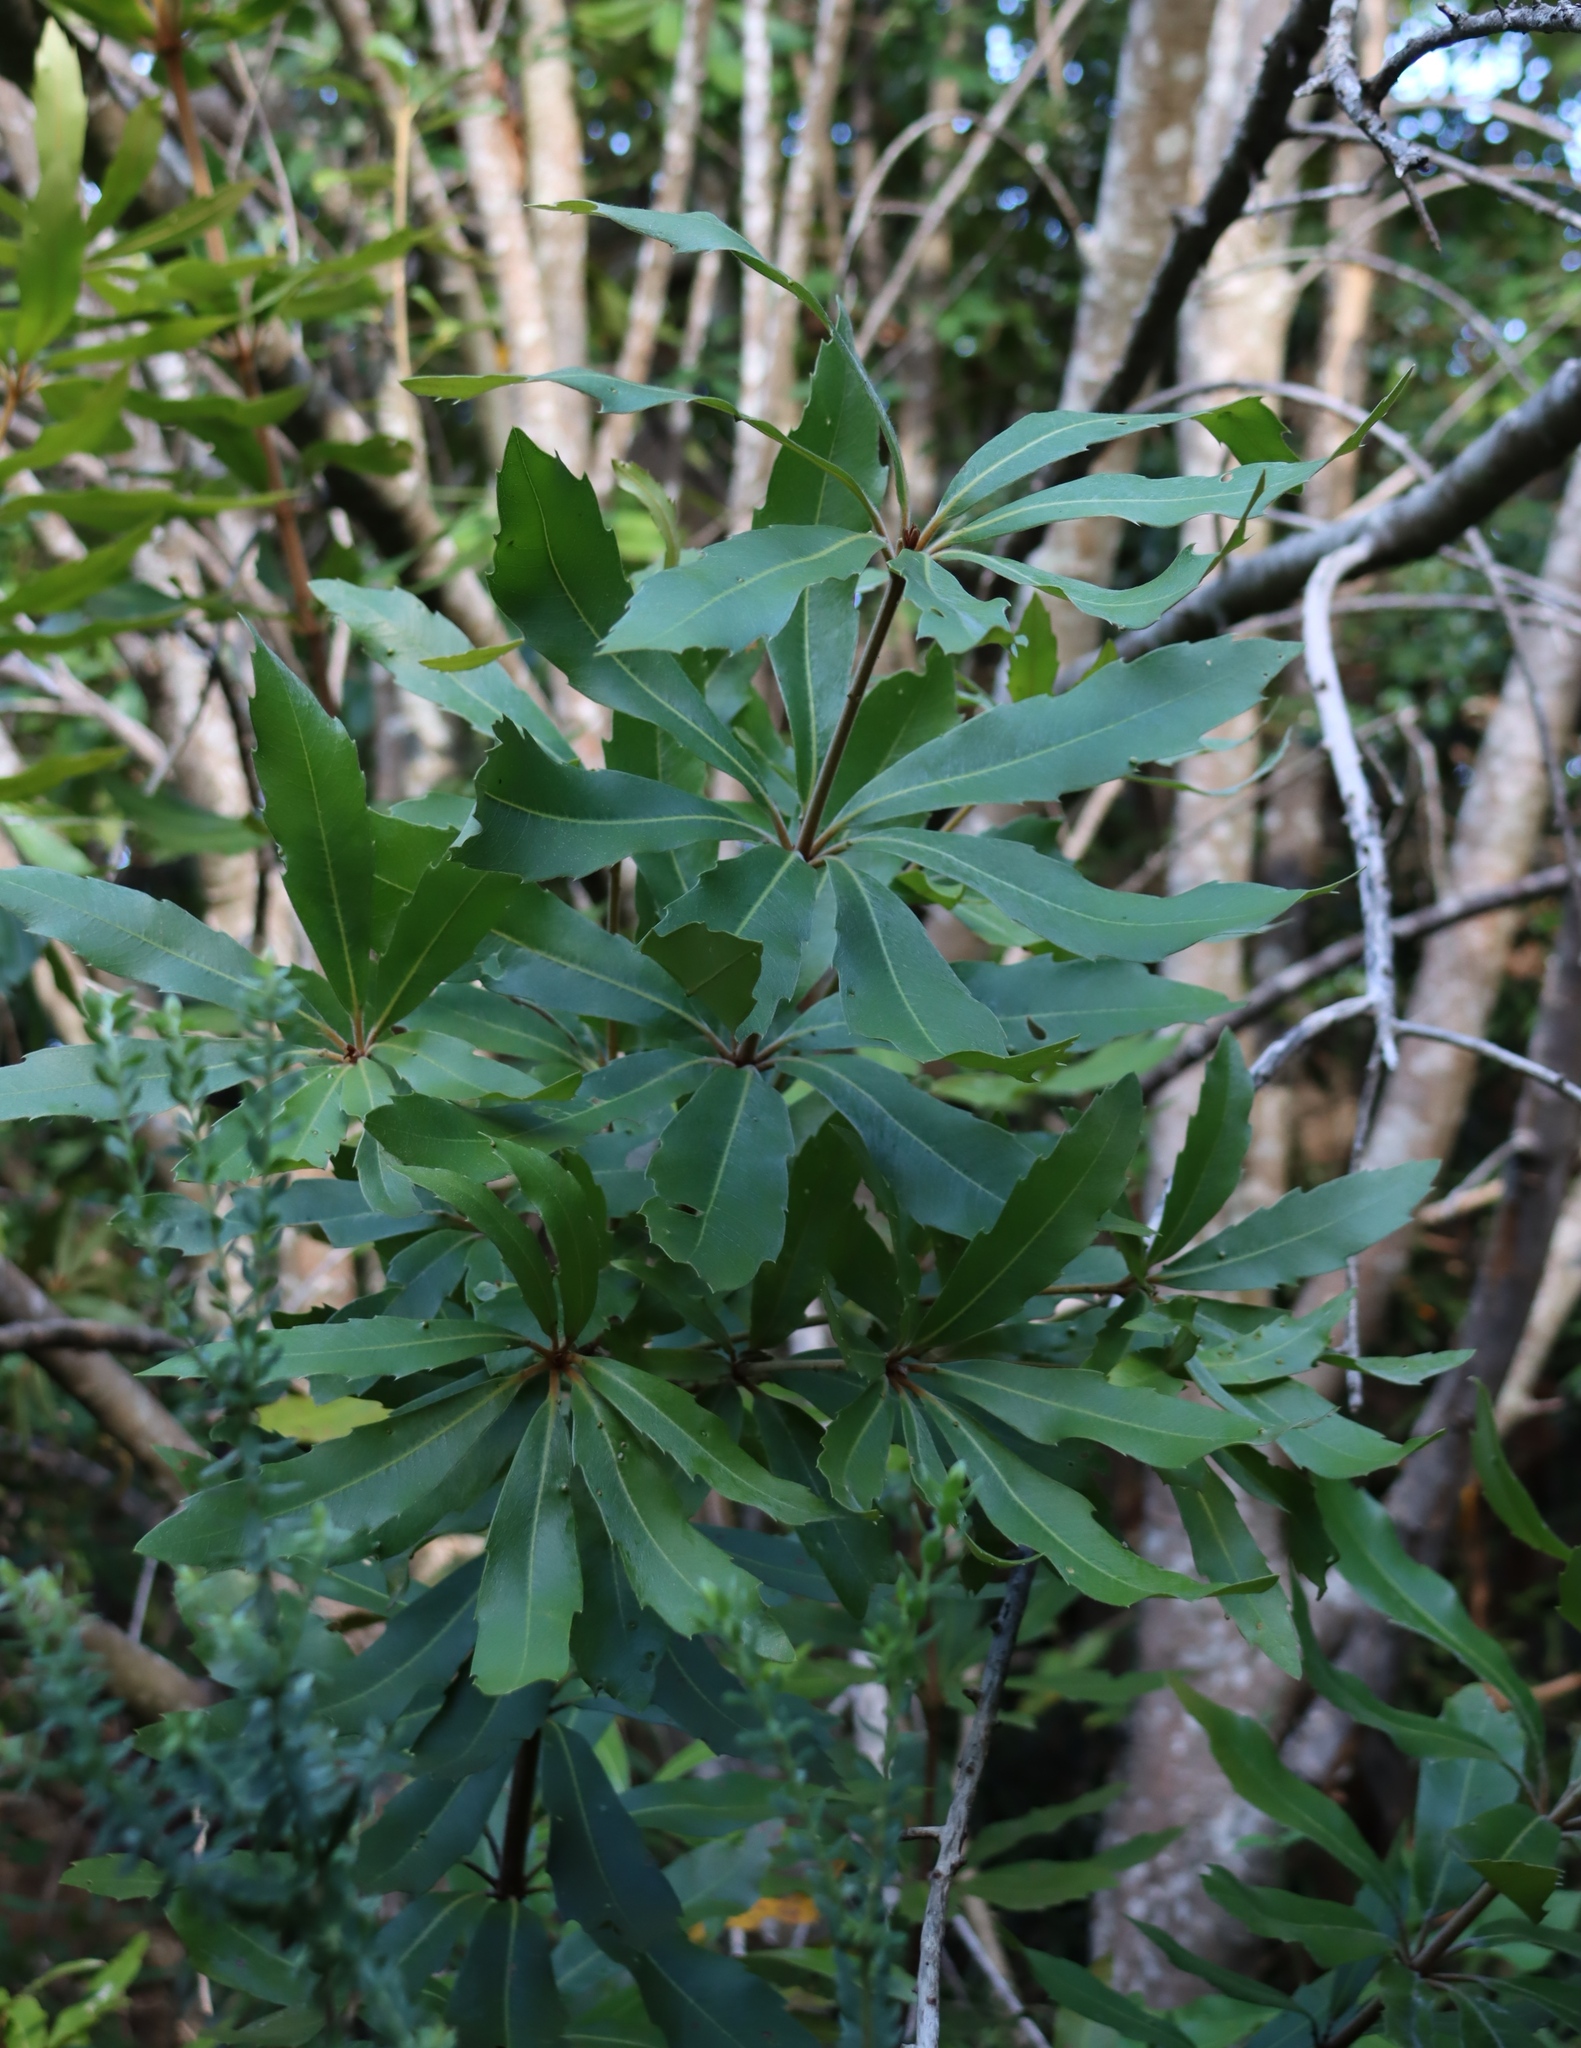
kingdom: Plantae
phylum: Tracheophyta
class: Magnoliopsida
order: Proteales
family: Proteaceae
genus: Brabejum
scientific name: Brabejum stellatifolium
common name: Wild almond
